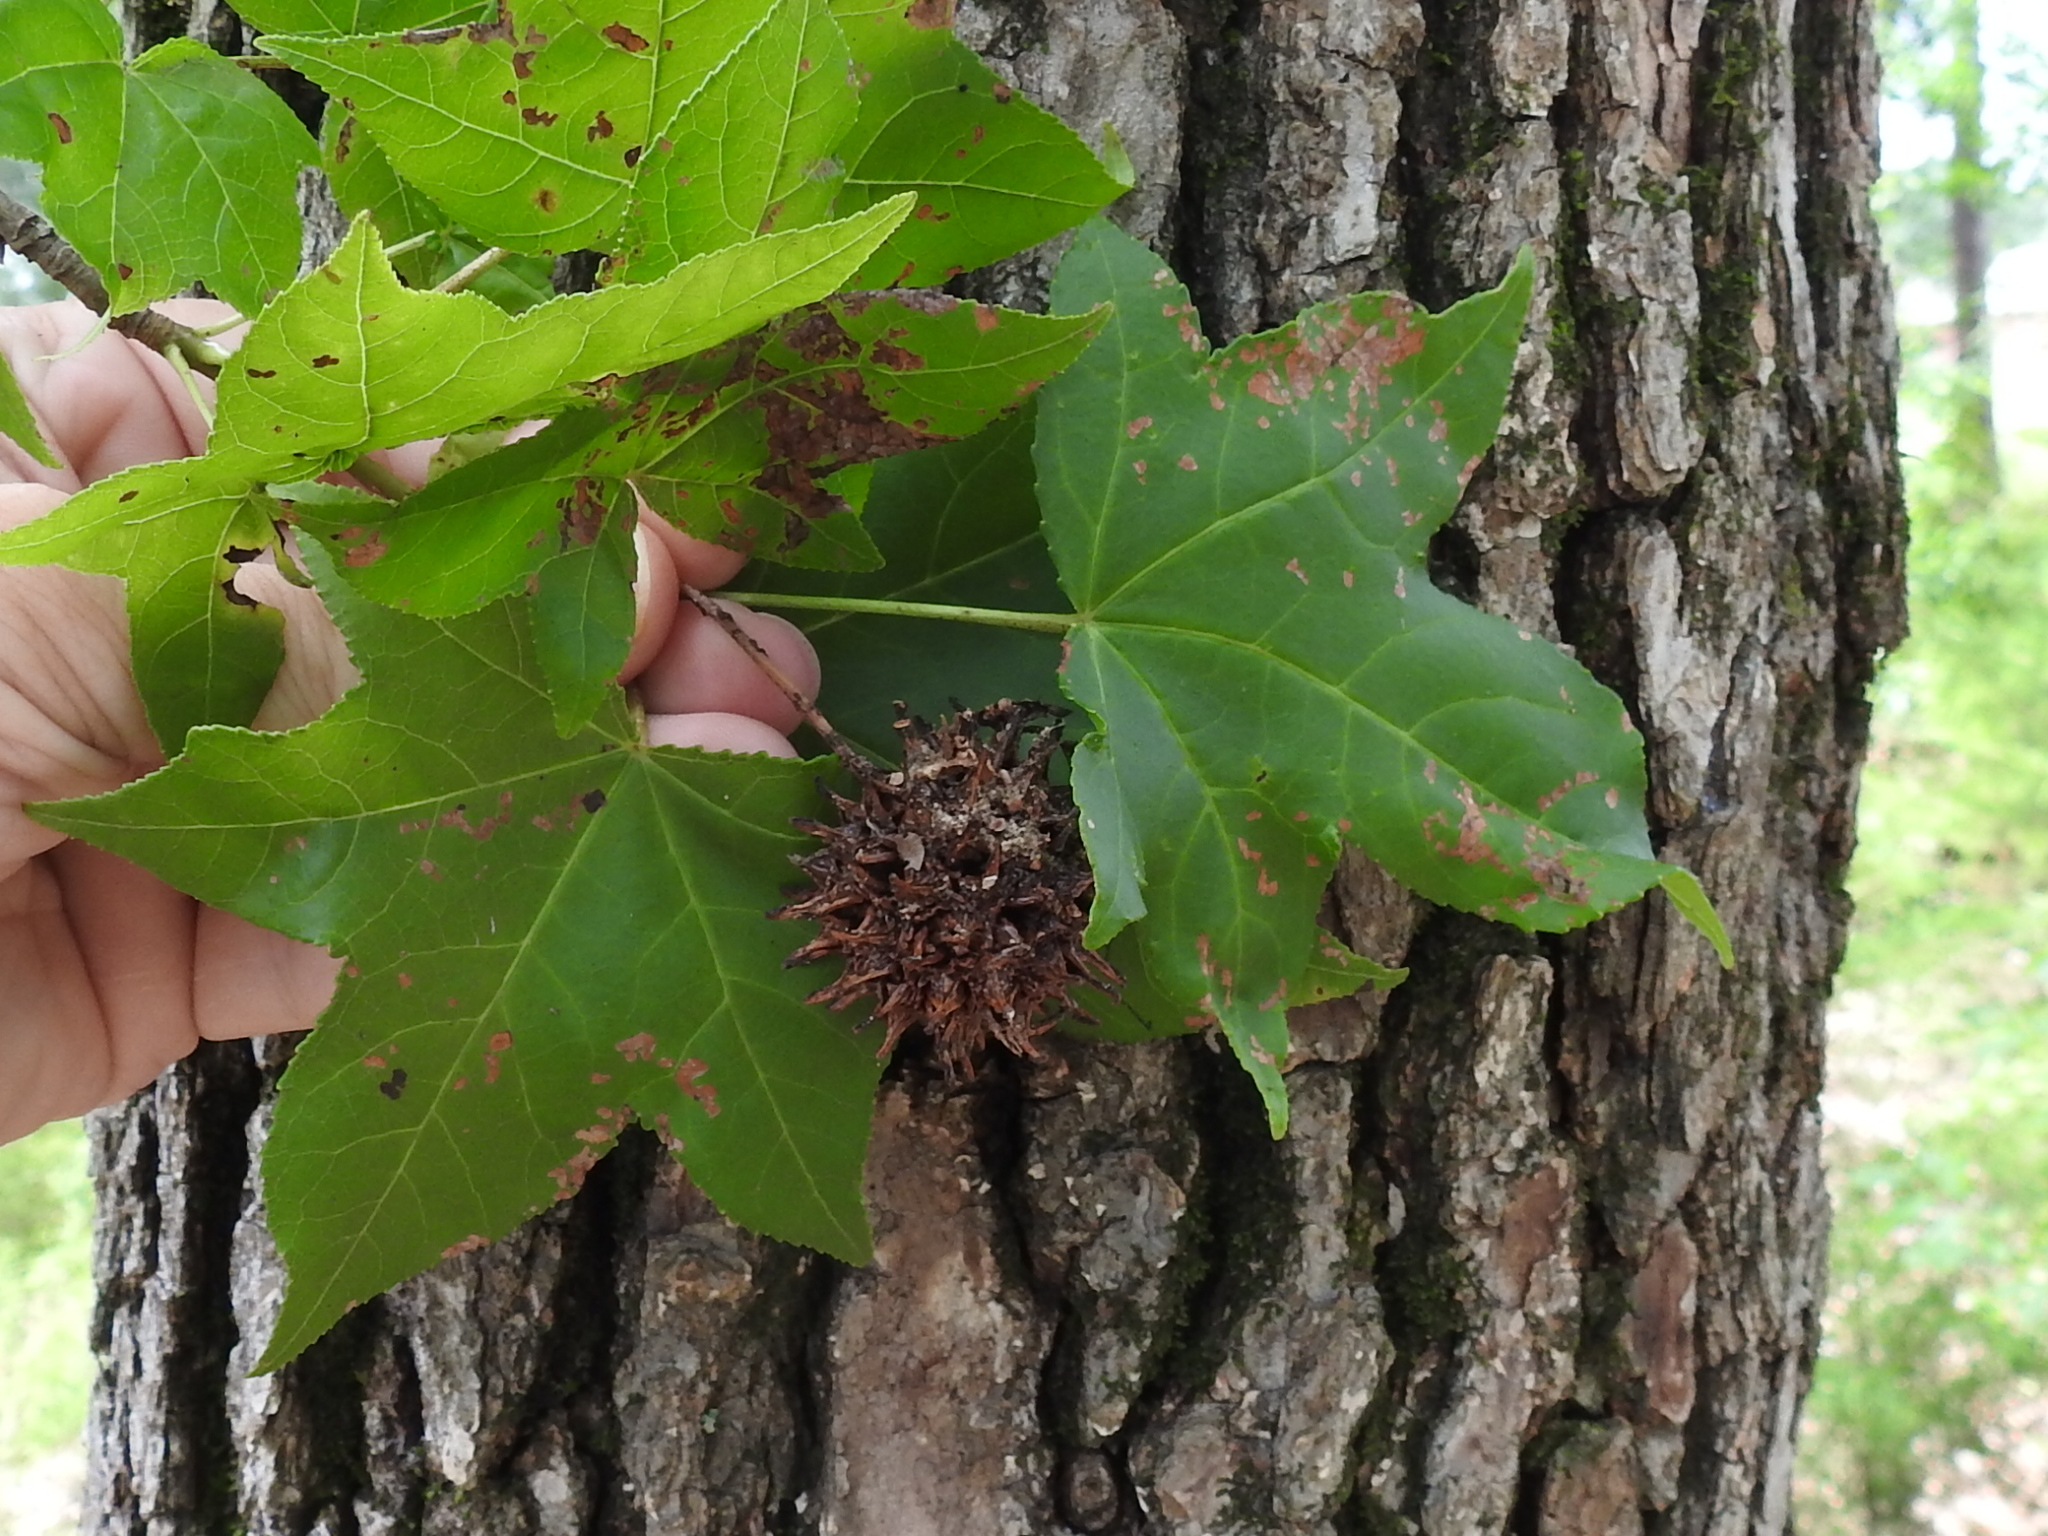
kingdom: Plantae
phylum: Tracheophyta
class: Magnoliopsida
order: Saxifragales
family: Altingiaceae
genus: Liquidambar
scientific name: Liquidambar styraciflua
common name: Sweet gum
